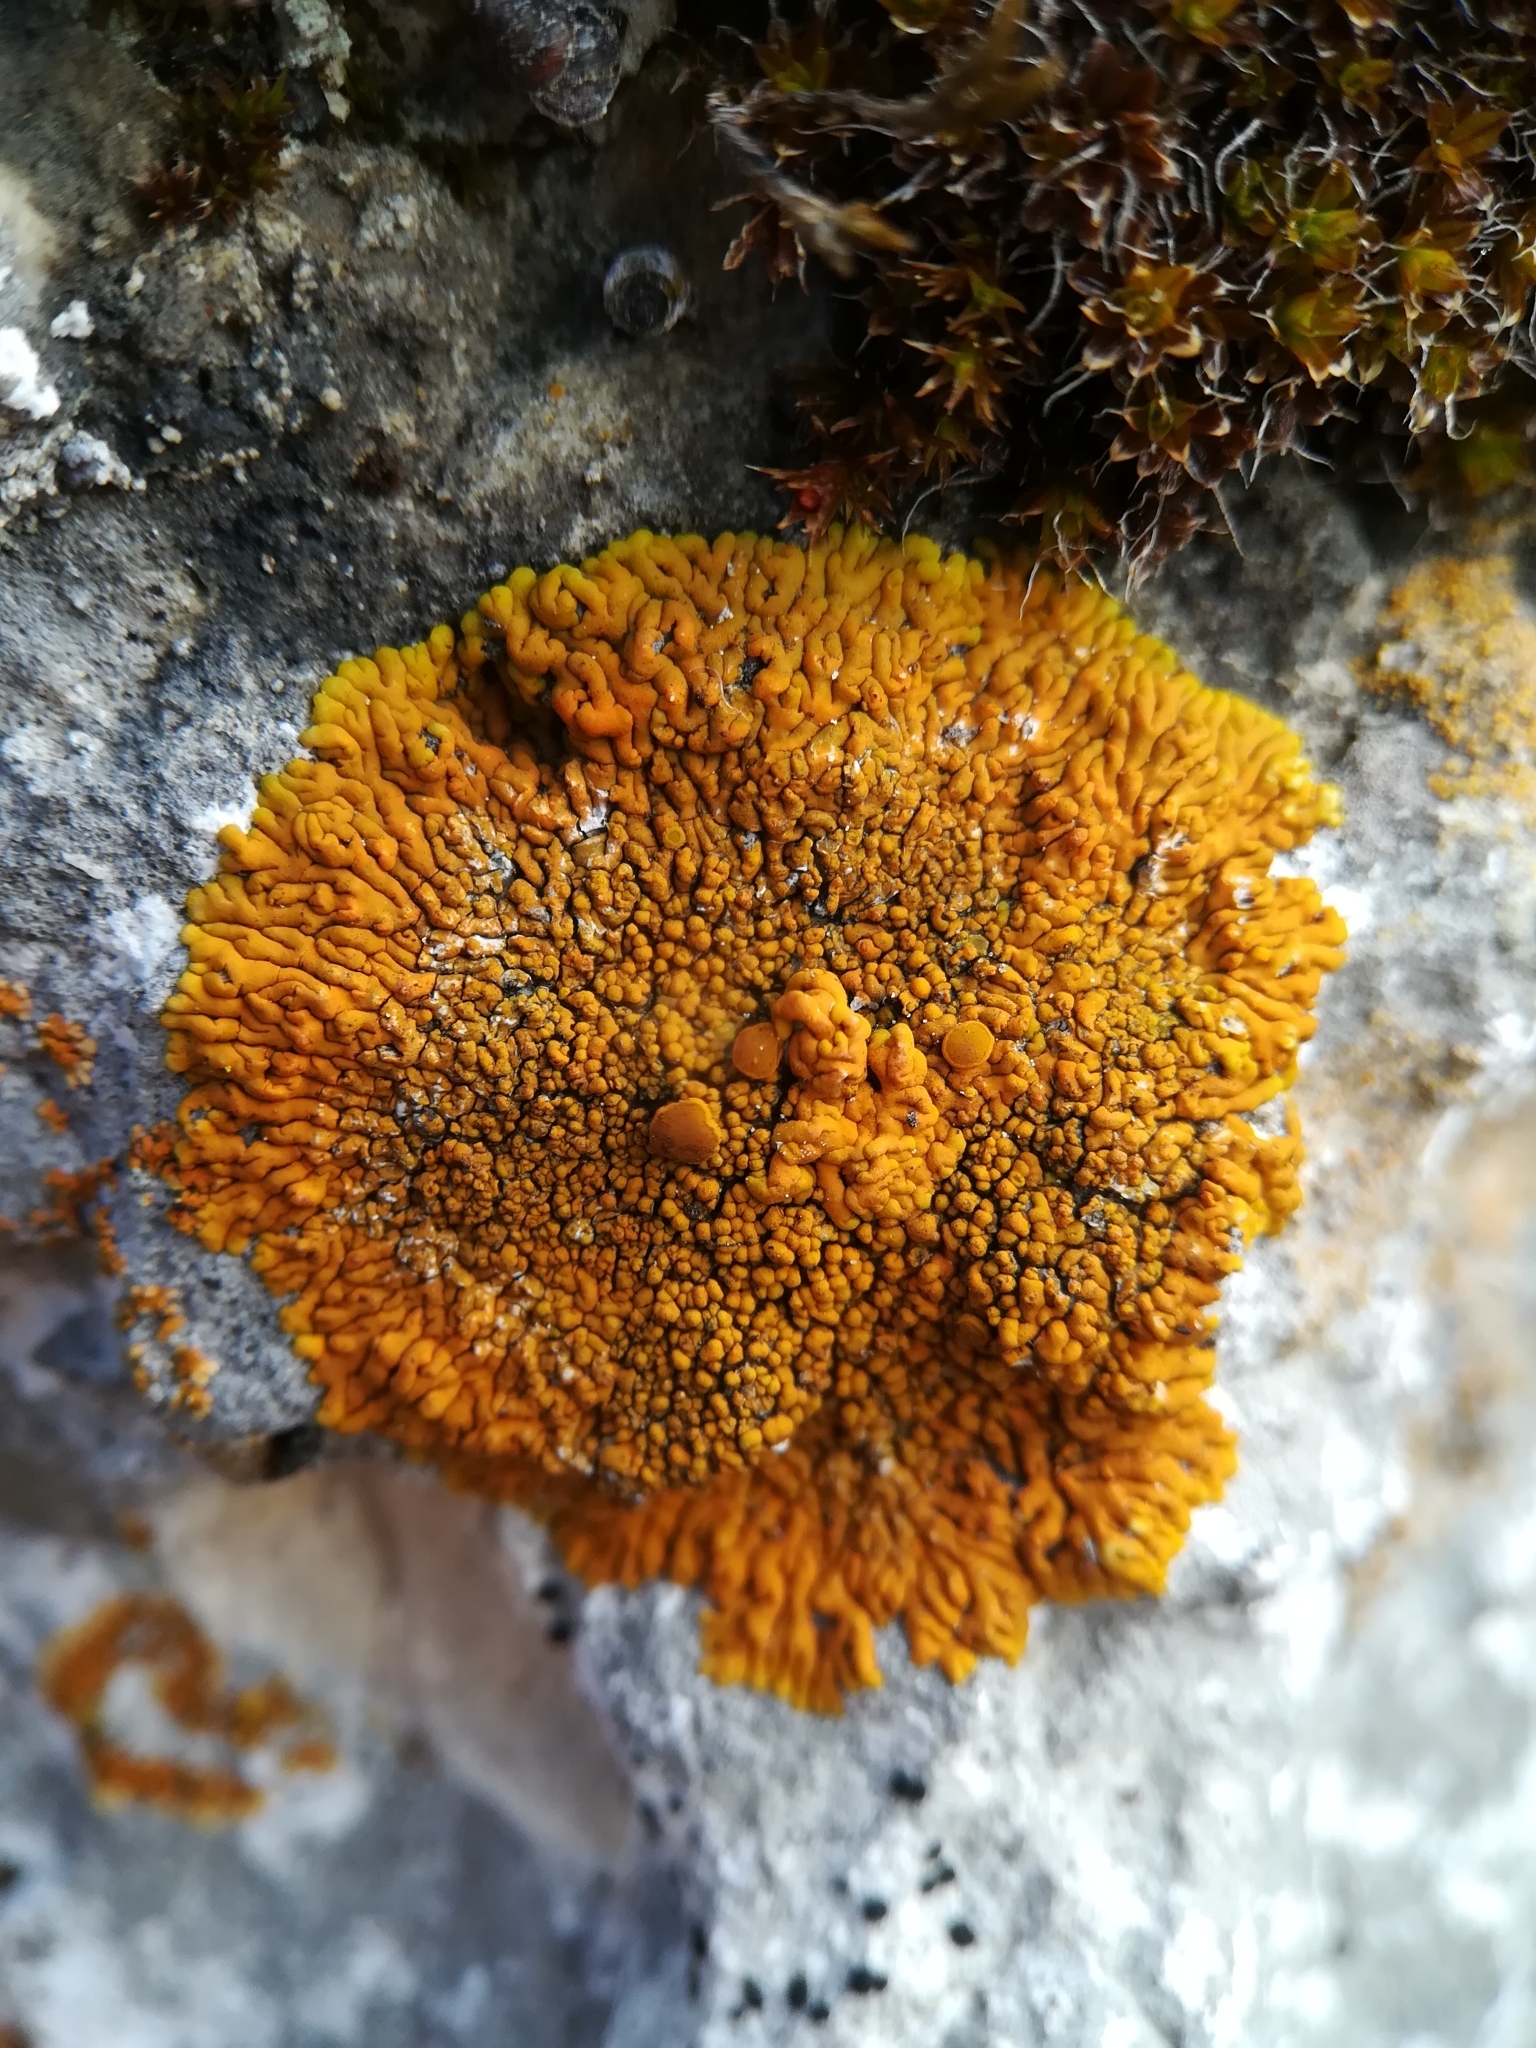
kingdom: Fungi
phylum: Ascomycota
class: Lecanoromycetes
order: Teloschistales
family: Teloschistaceae
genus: Xanthoria
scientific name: Xanthoria elegans
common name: Elegant sunburst lichen
